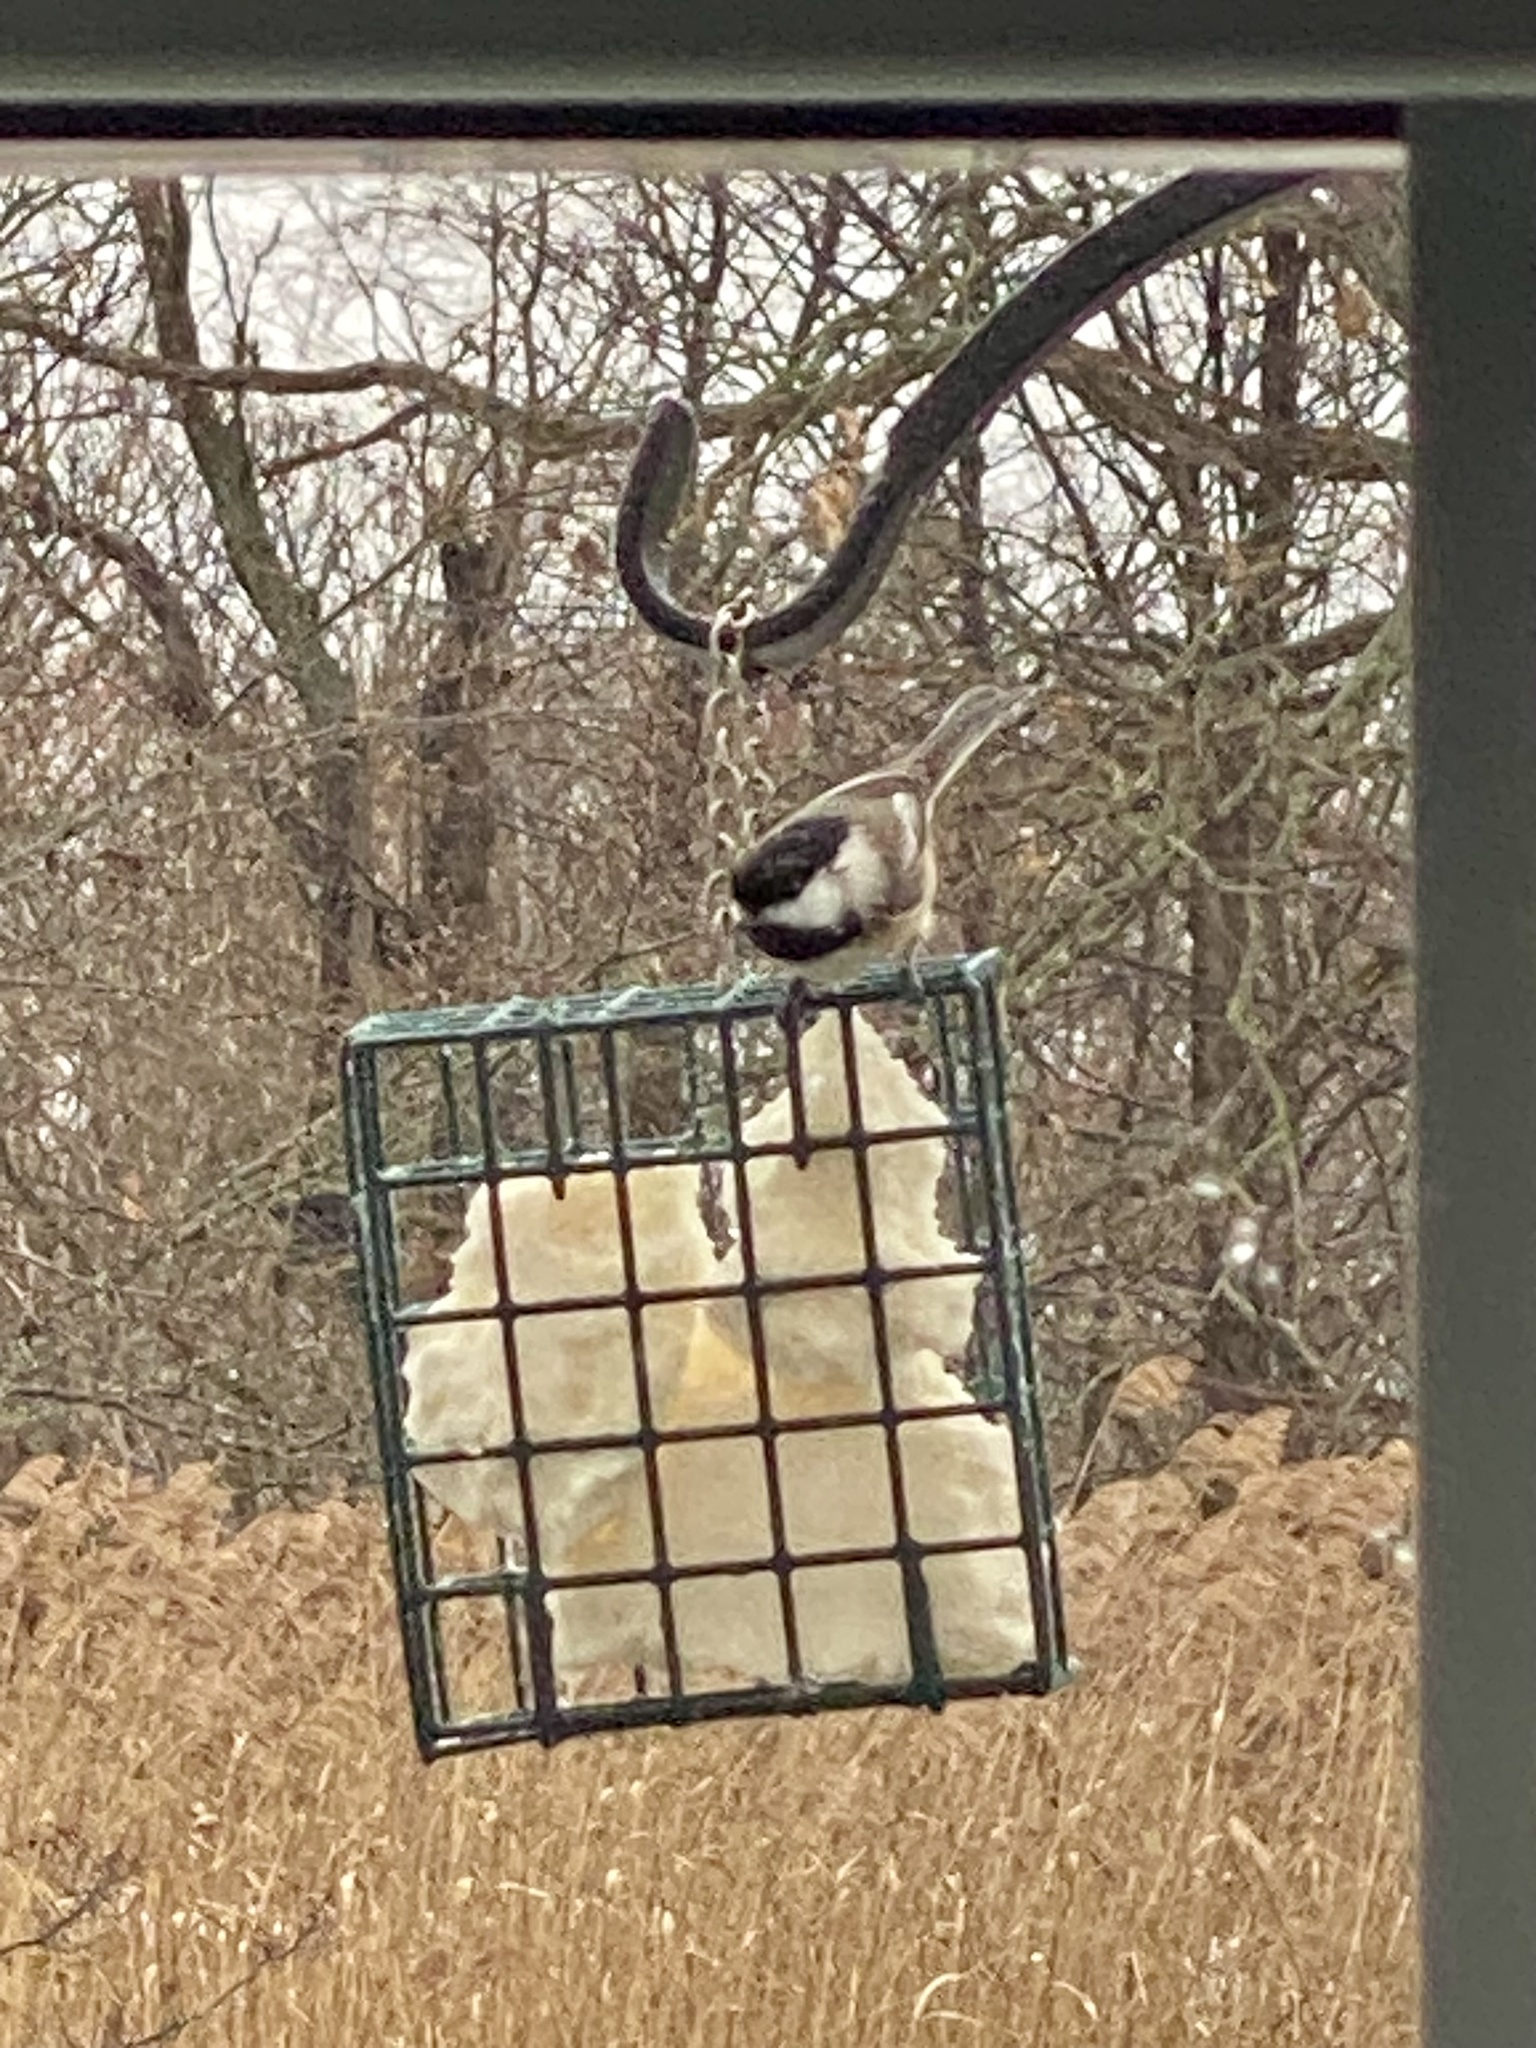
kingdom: Animalia
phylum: Chordata
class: Aves
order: Passeriformes
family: Paridae
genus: Poecile
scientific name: Poecile atricapillus
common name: Black-capped chickadee
